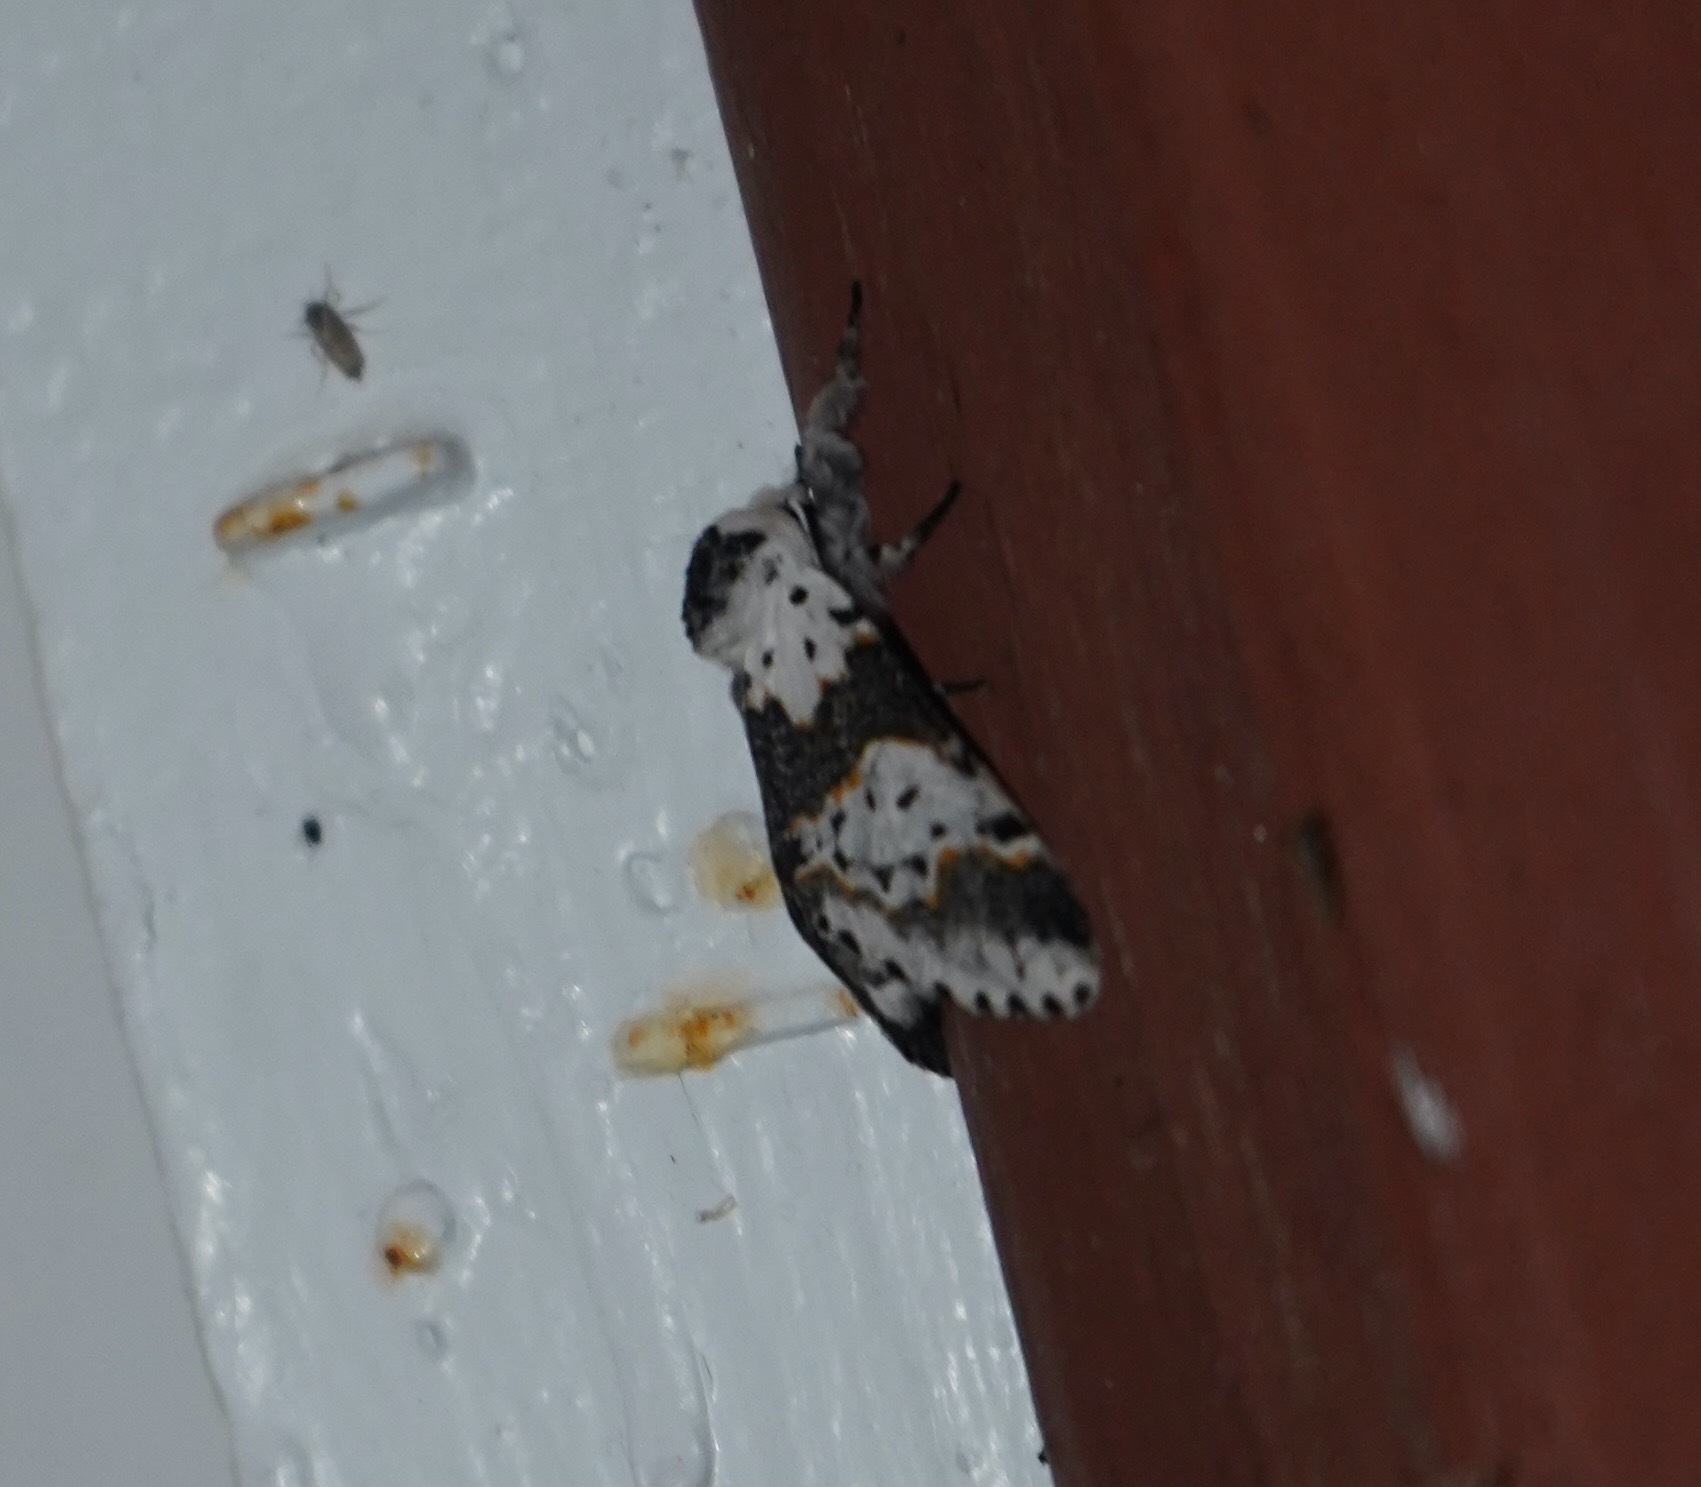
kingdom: Animalia
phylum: Arthropoda
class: Insecta
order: Lepidoptera
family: Notodontidae
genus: Furcula
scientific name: Furcula borealis
